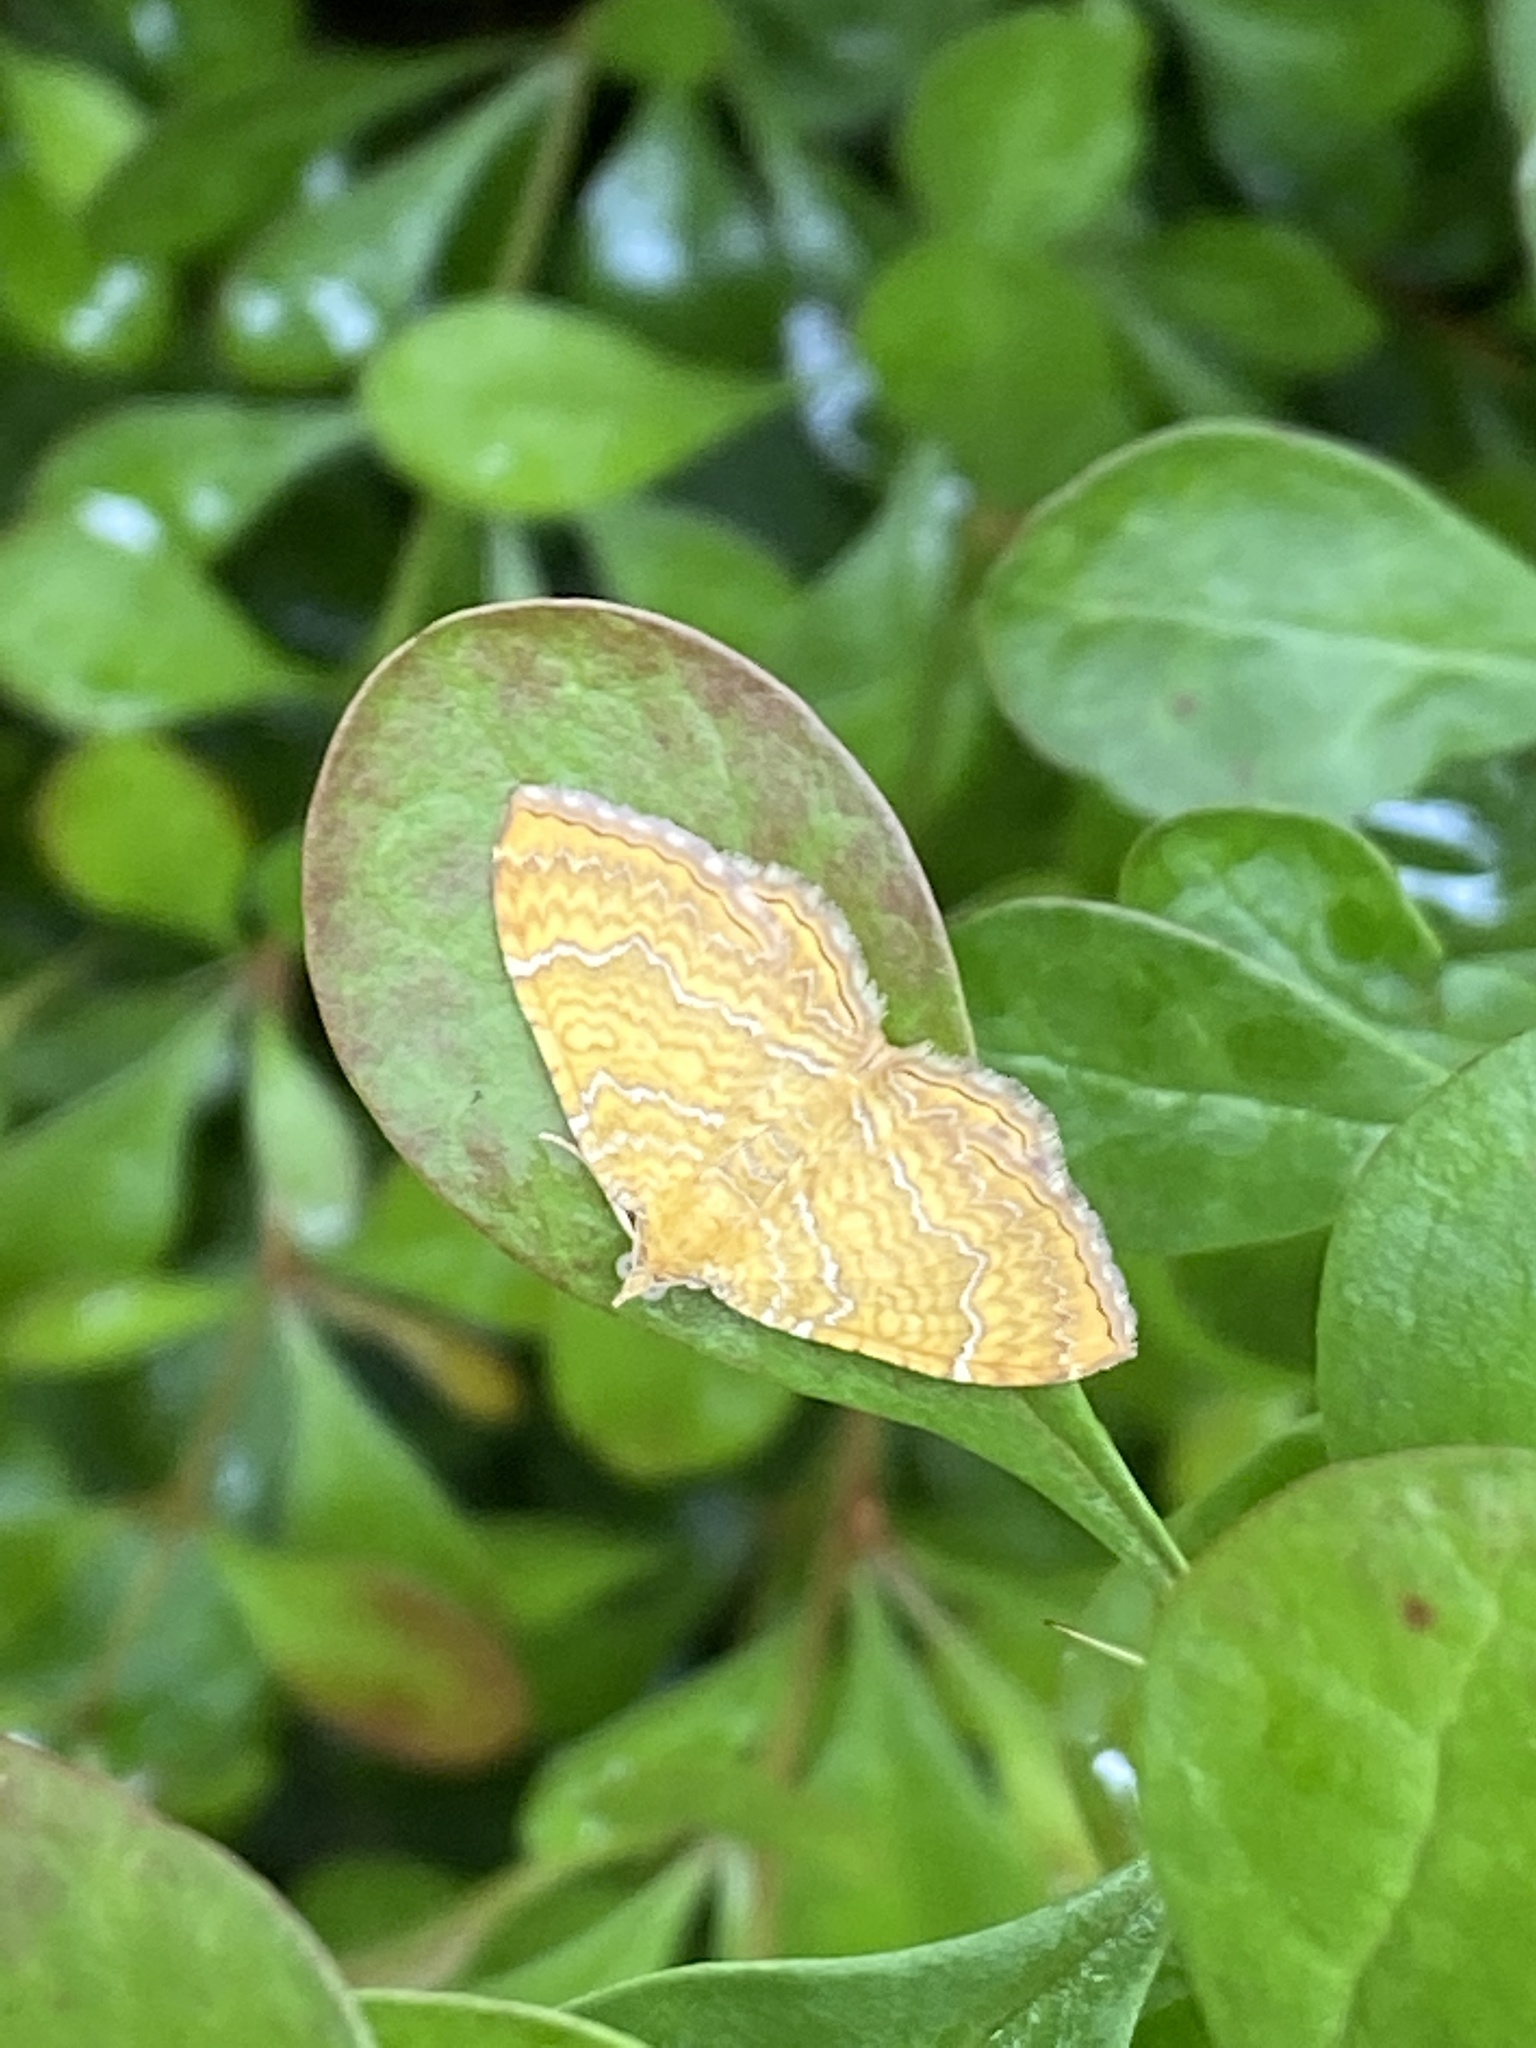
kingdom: Animalia
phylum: Arthropoda
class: Insecta
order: Lepidoptera
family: Geometridae
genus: Camptogramma
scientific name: Camptogramma bilineata
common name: Yellow shell
